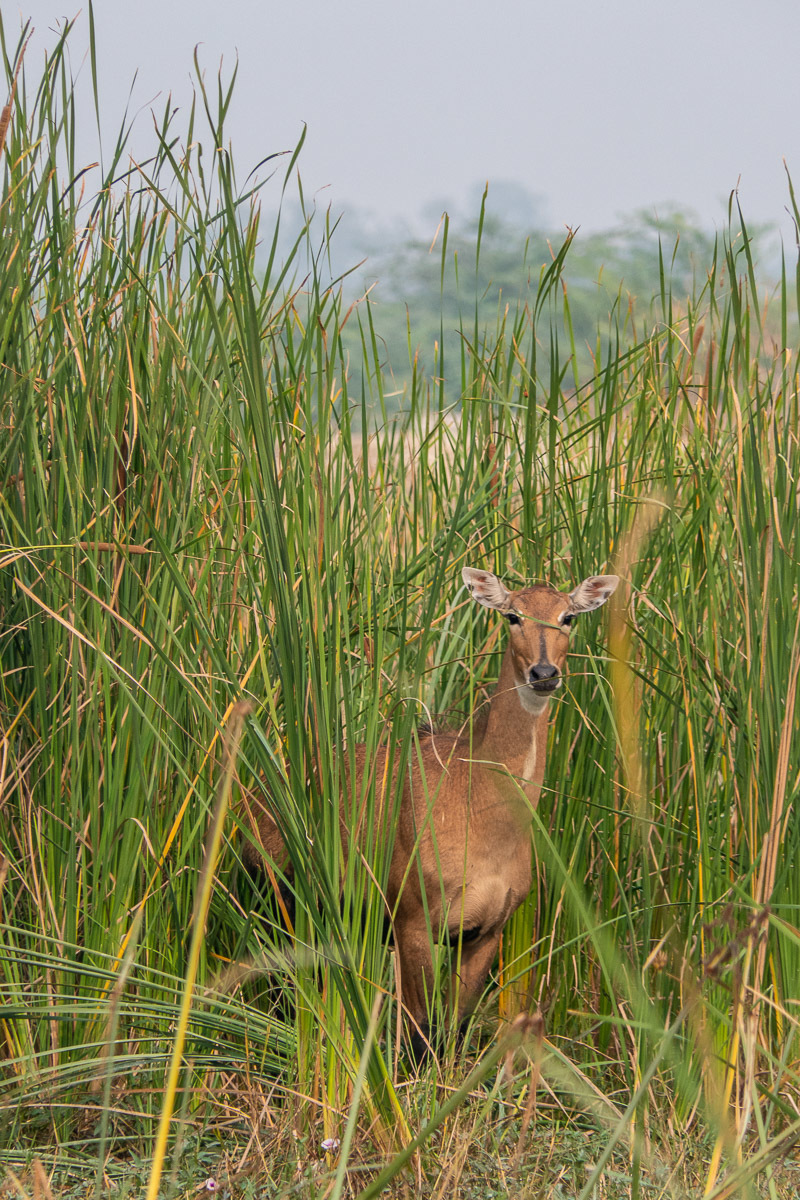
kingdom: Animalia
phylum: Chordata
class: Mammalia
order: Artiodactyla
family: Bovidae
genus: Boselaphus
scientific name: Boselaphus tragocamelus
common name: Nilgai
